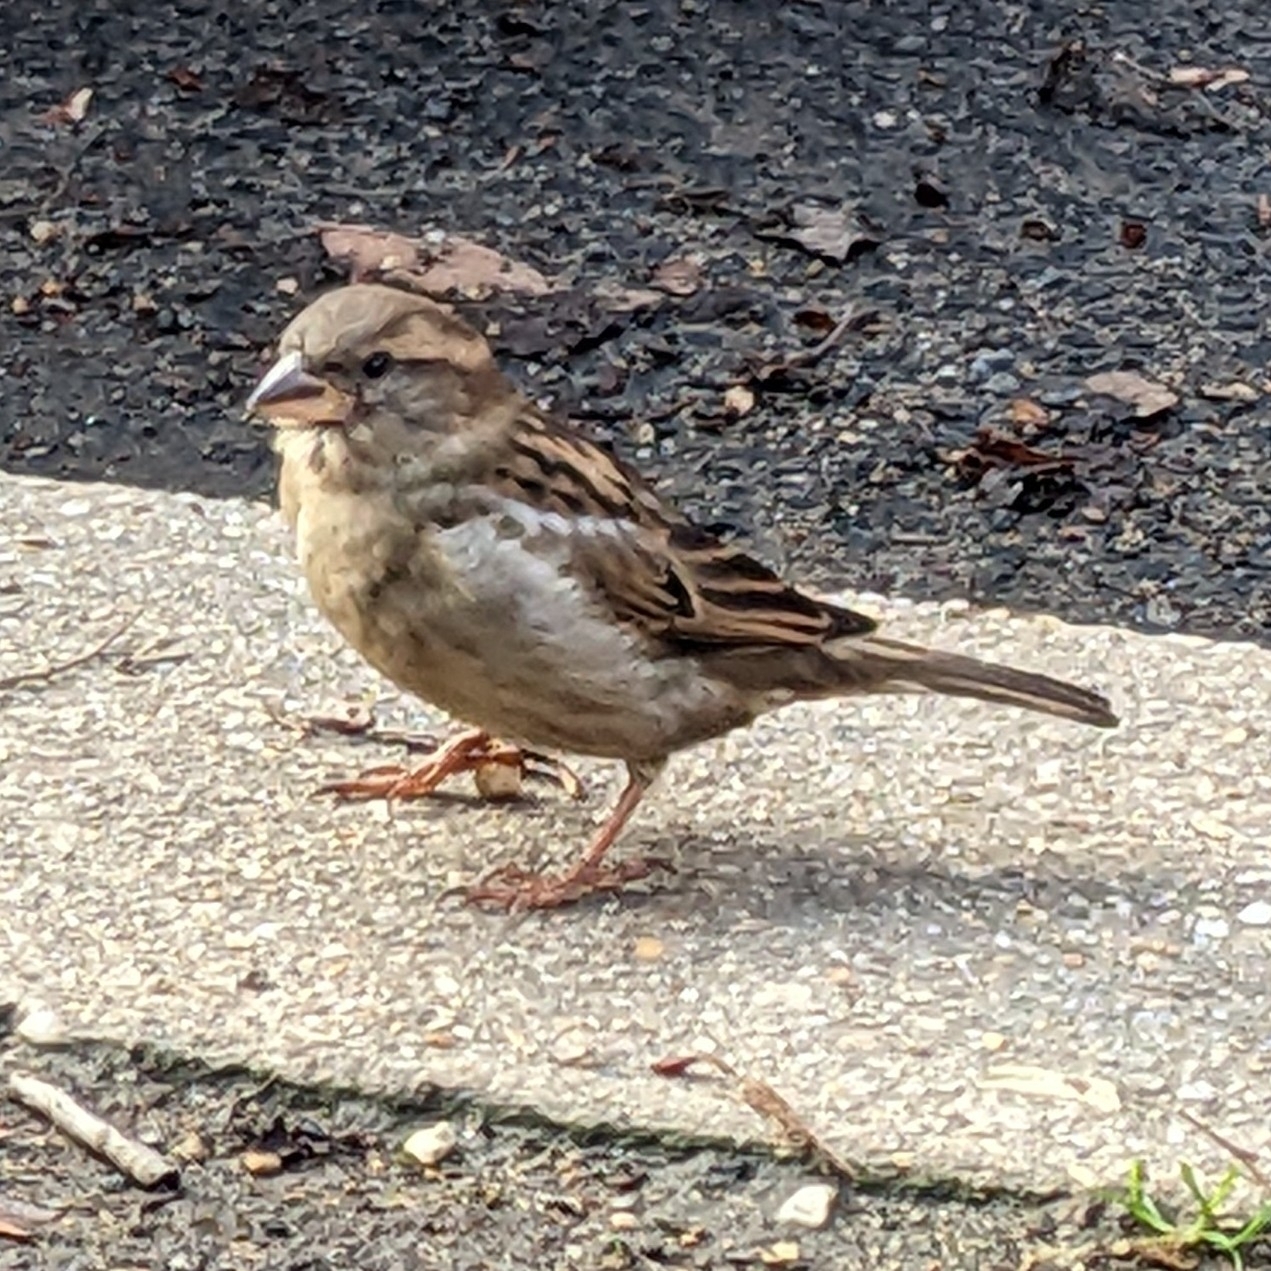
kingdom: Animalia
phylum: Chordata
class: Aves
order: Passeriformes
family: Passeridae
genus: Passer
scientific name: Passer domesticus
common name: House sparrow
